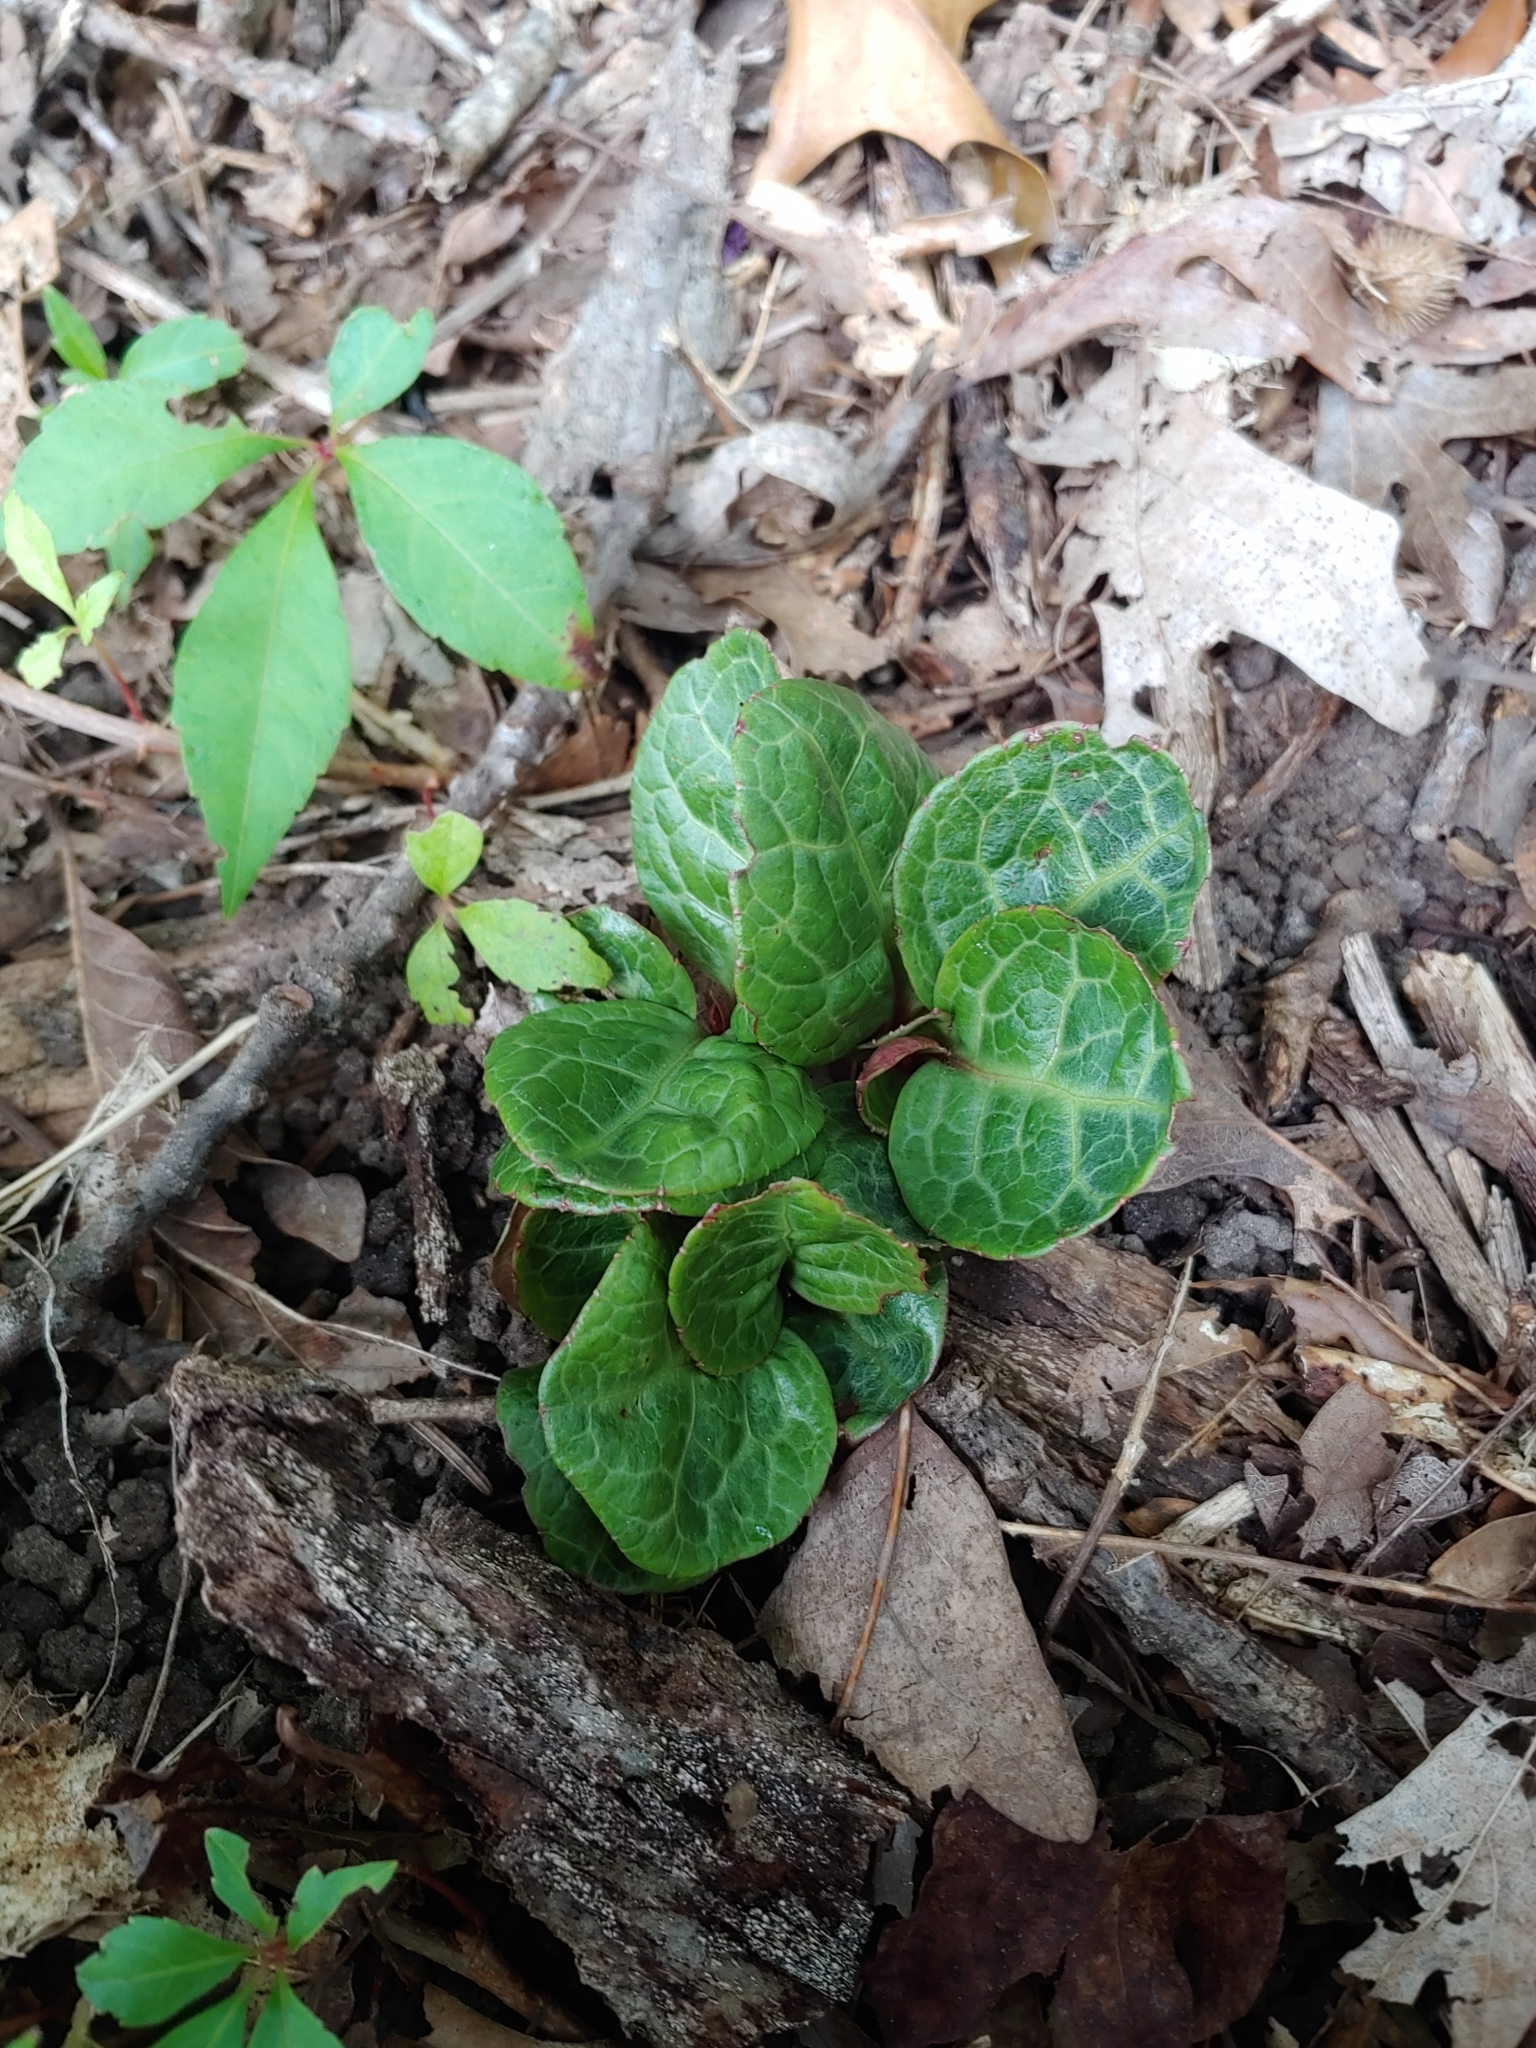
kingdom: Plantae
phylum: Tracheophyta
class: Magnoliopsida
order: Ericales
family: Ericaceae
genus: Pyrola
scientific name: Pyrola americana
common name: American wintergreen
